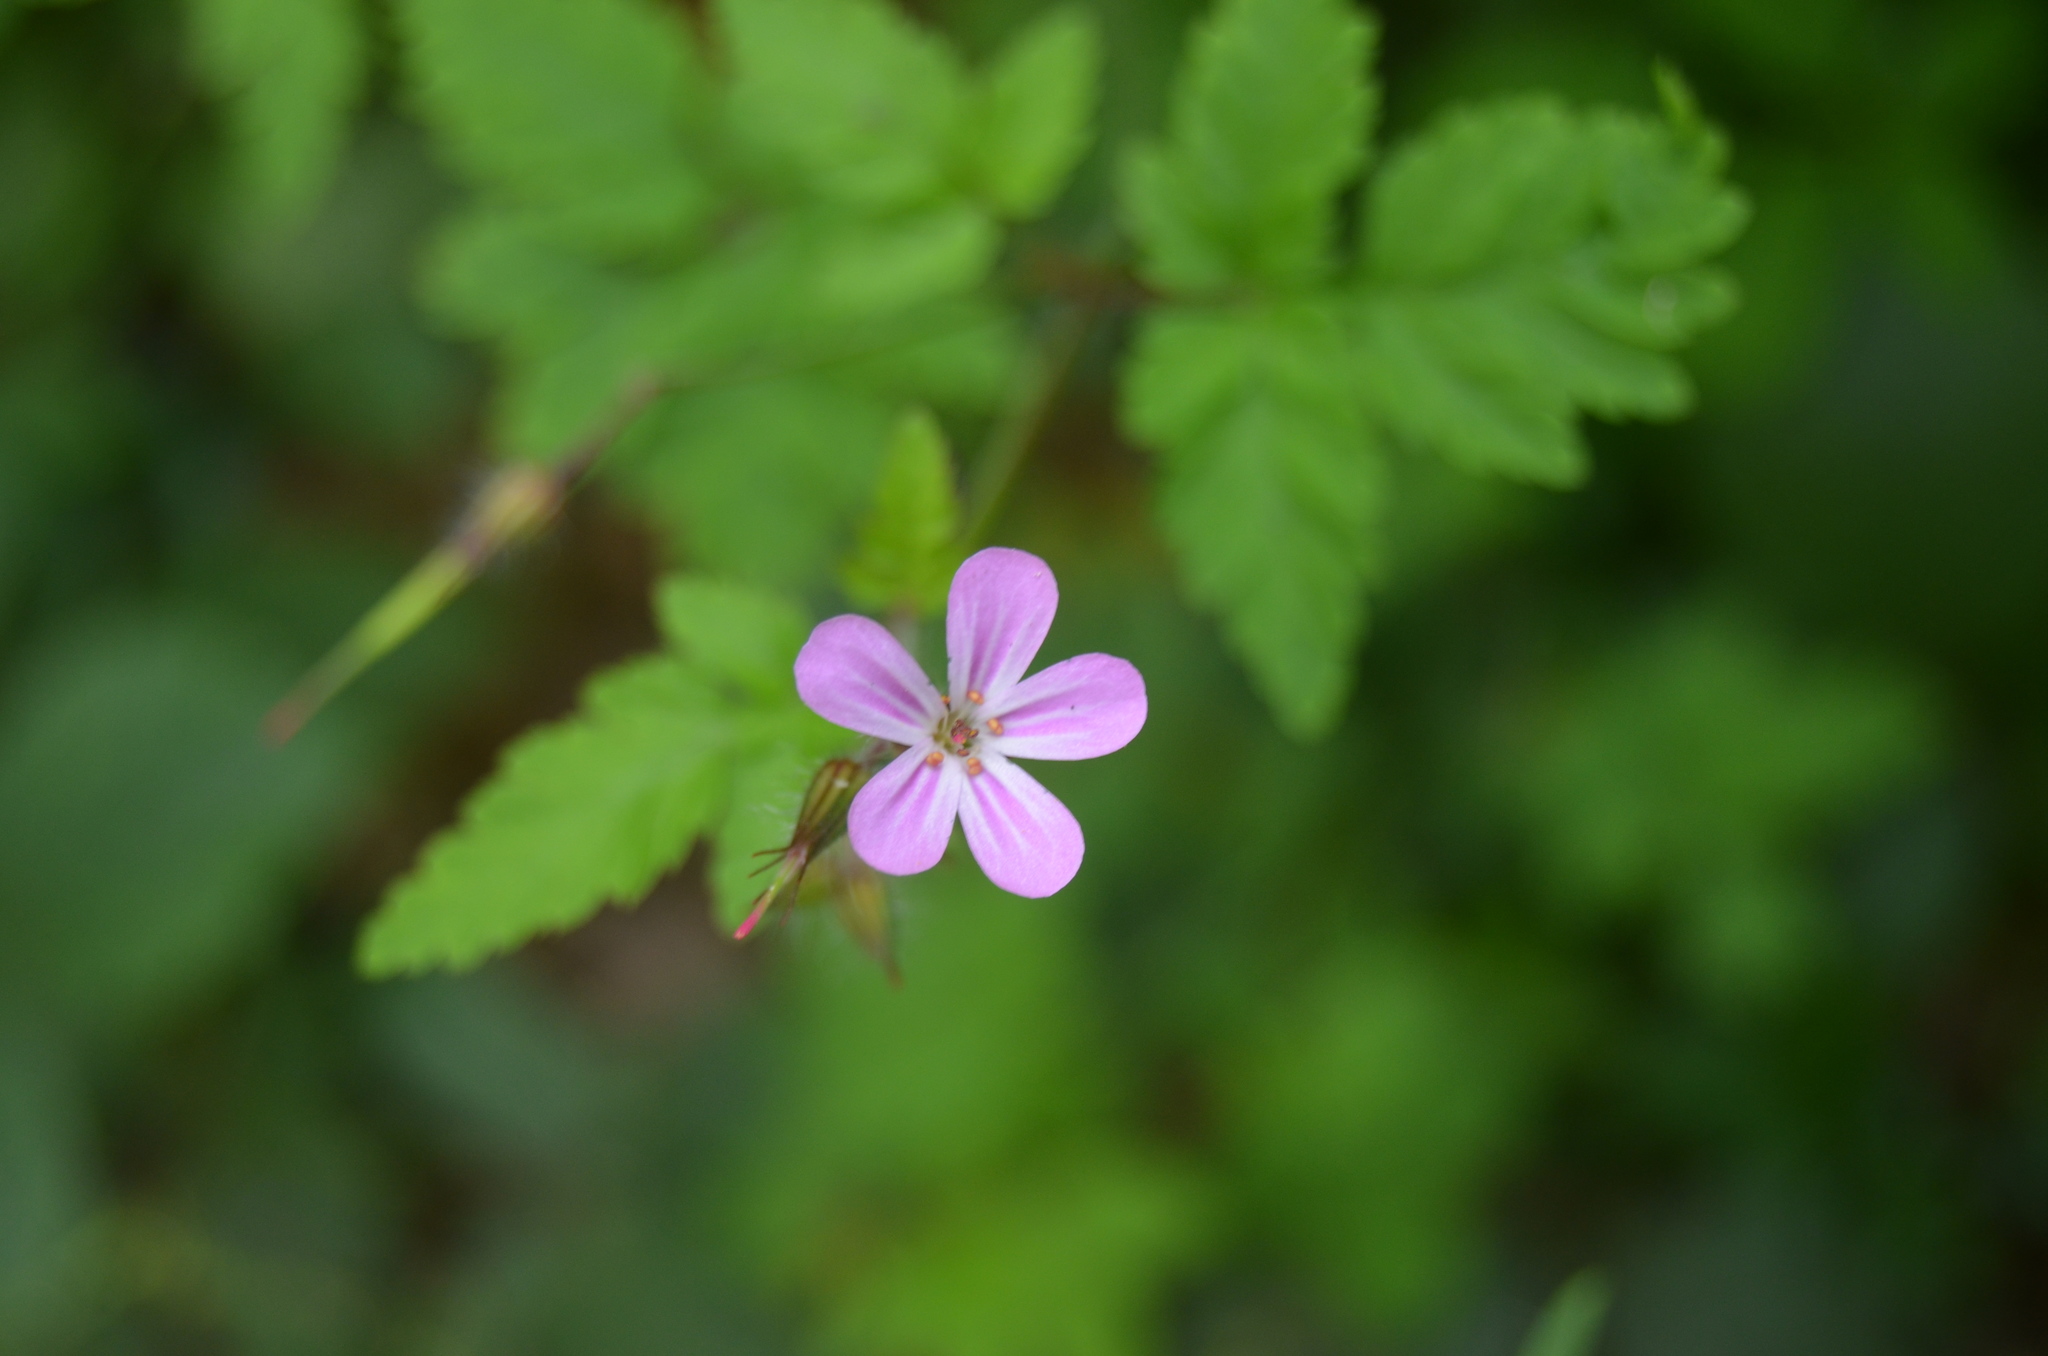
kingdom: Plantae
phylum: Tracheophyta
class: Magnoliopsida
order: Geraniales
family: Geraniaceae
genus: Geranium
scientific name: Geranium robertianum
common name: Herb-robert
